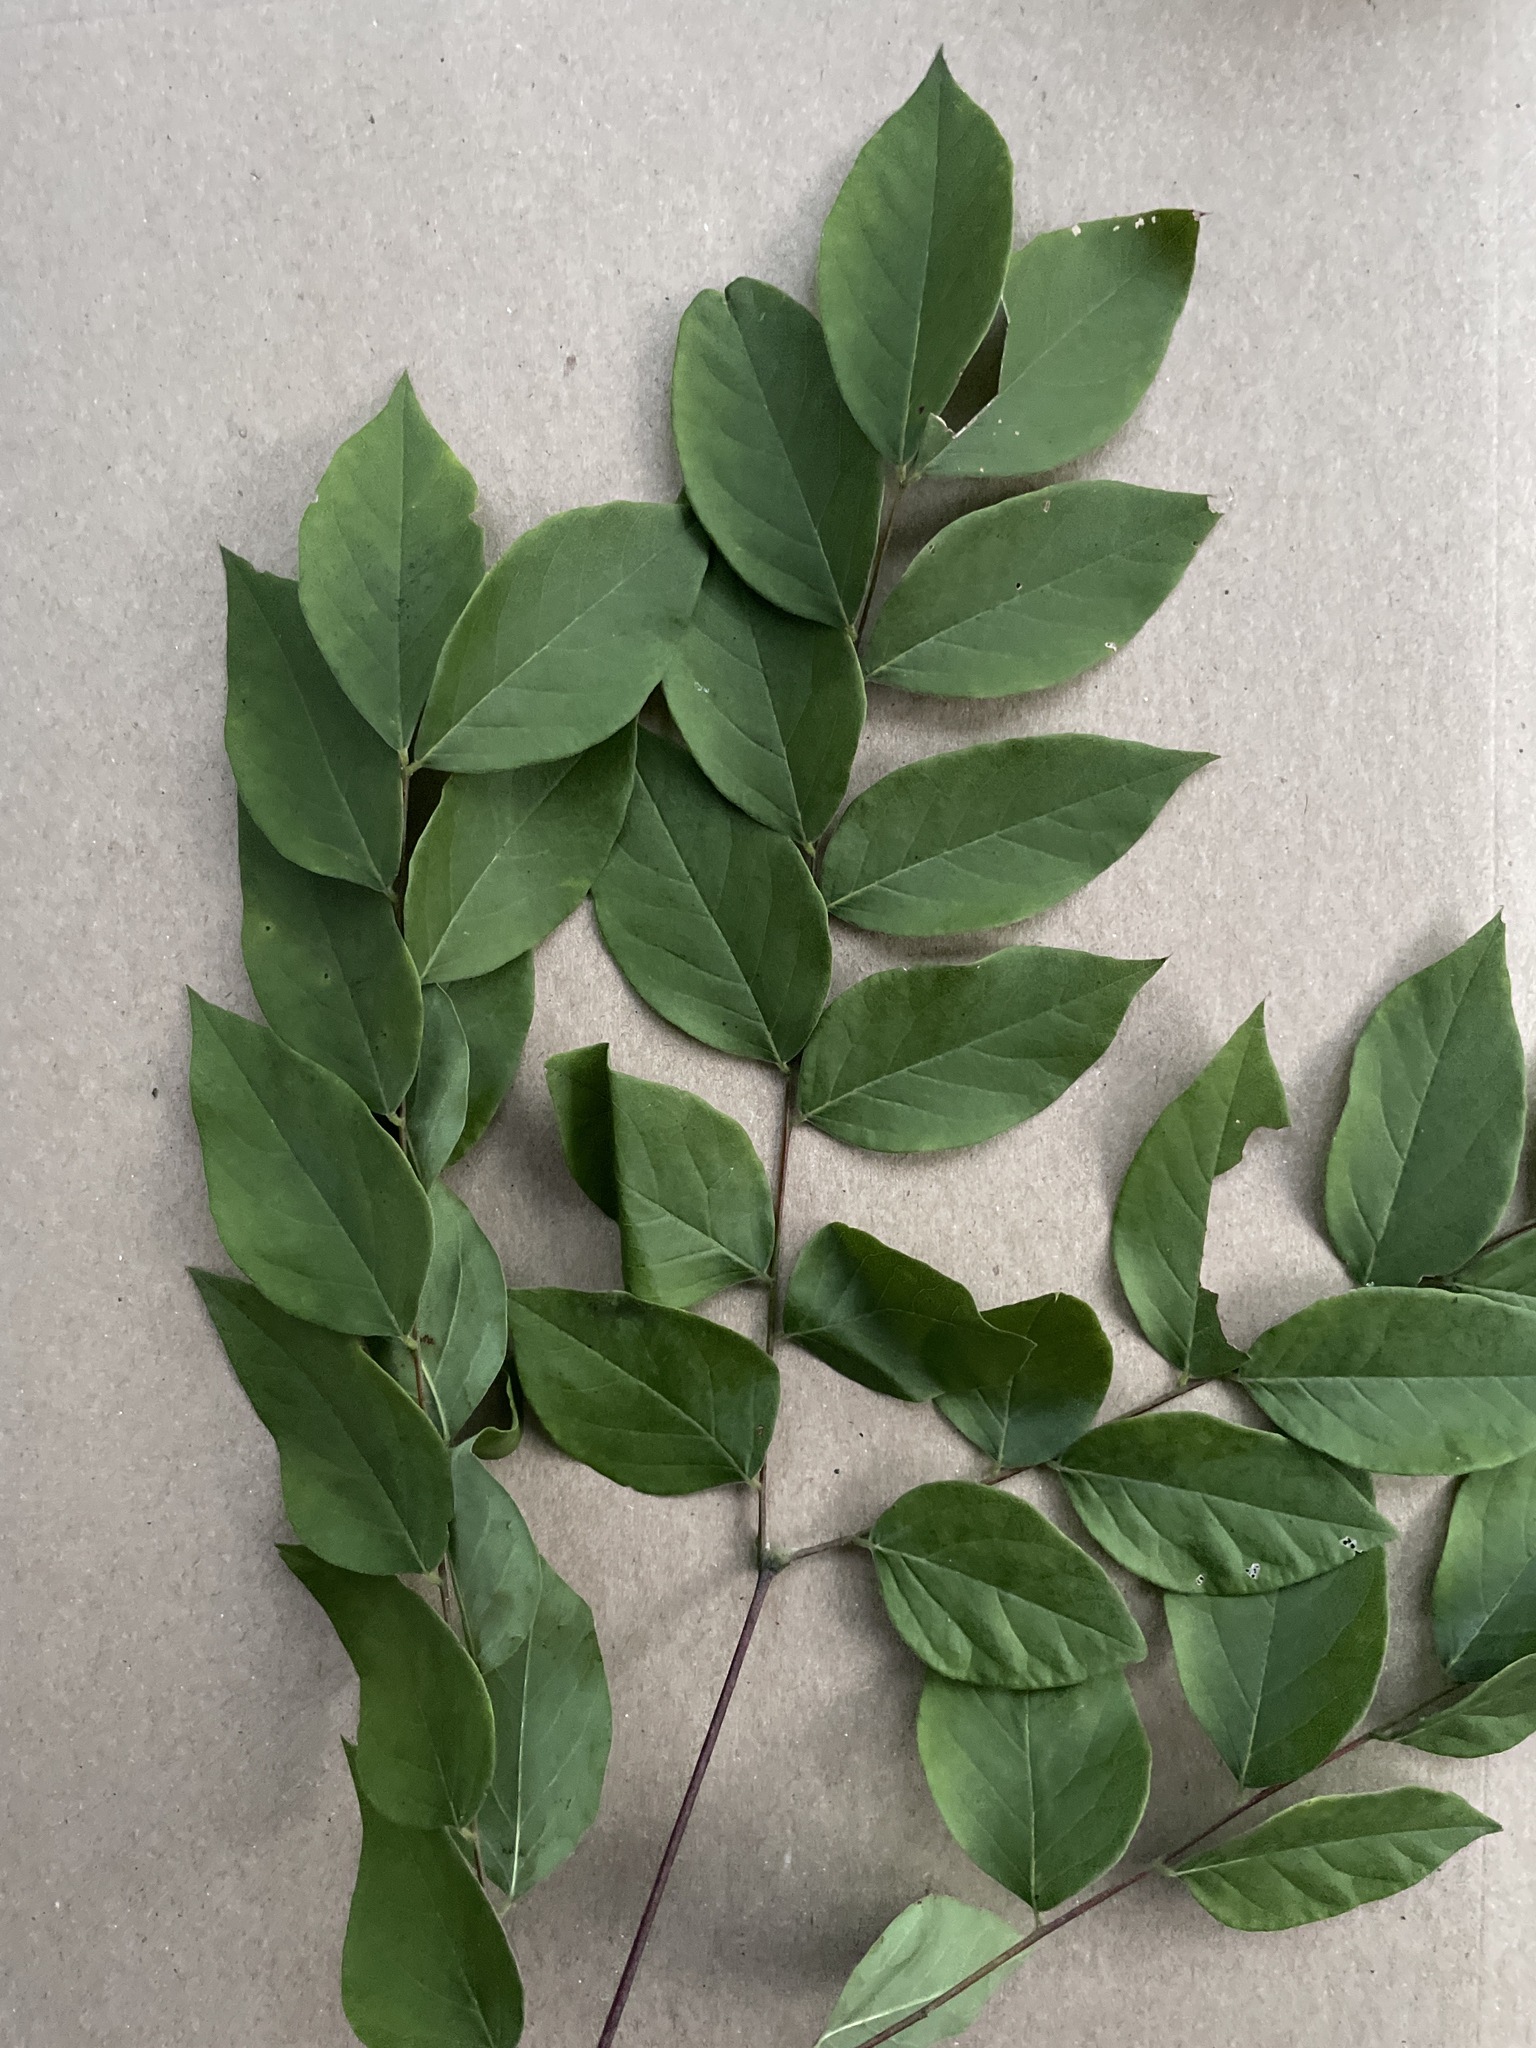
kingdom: Plantae
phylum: Tracheophyta
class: Magnoliopsida
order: Fabales
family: Fabaceae
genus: Gymnocladus
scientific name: Gymnocladus dioicus
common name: Kentucky coffee-tree
